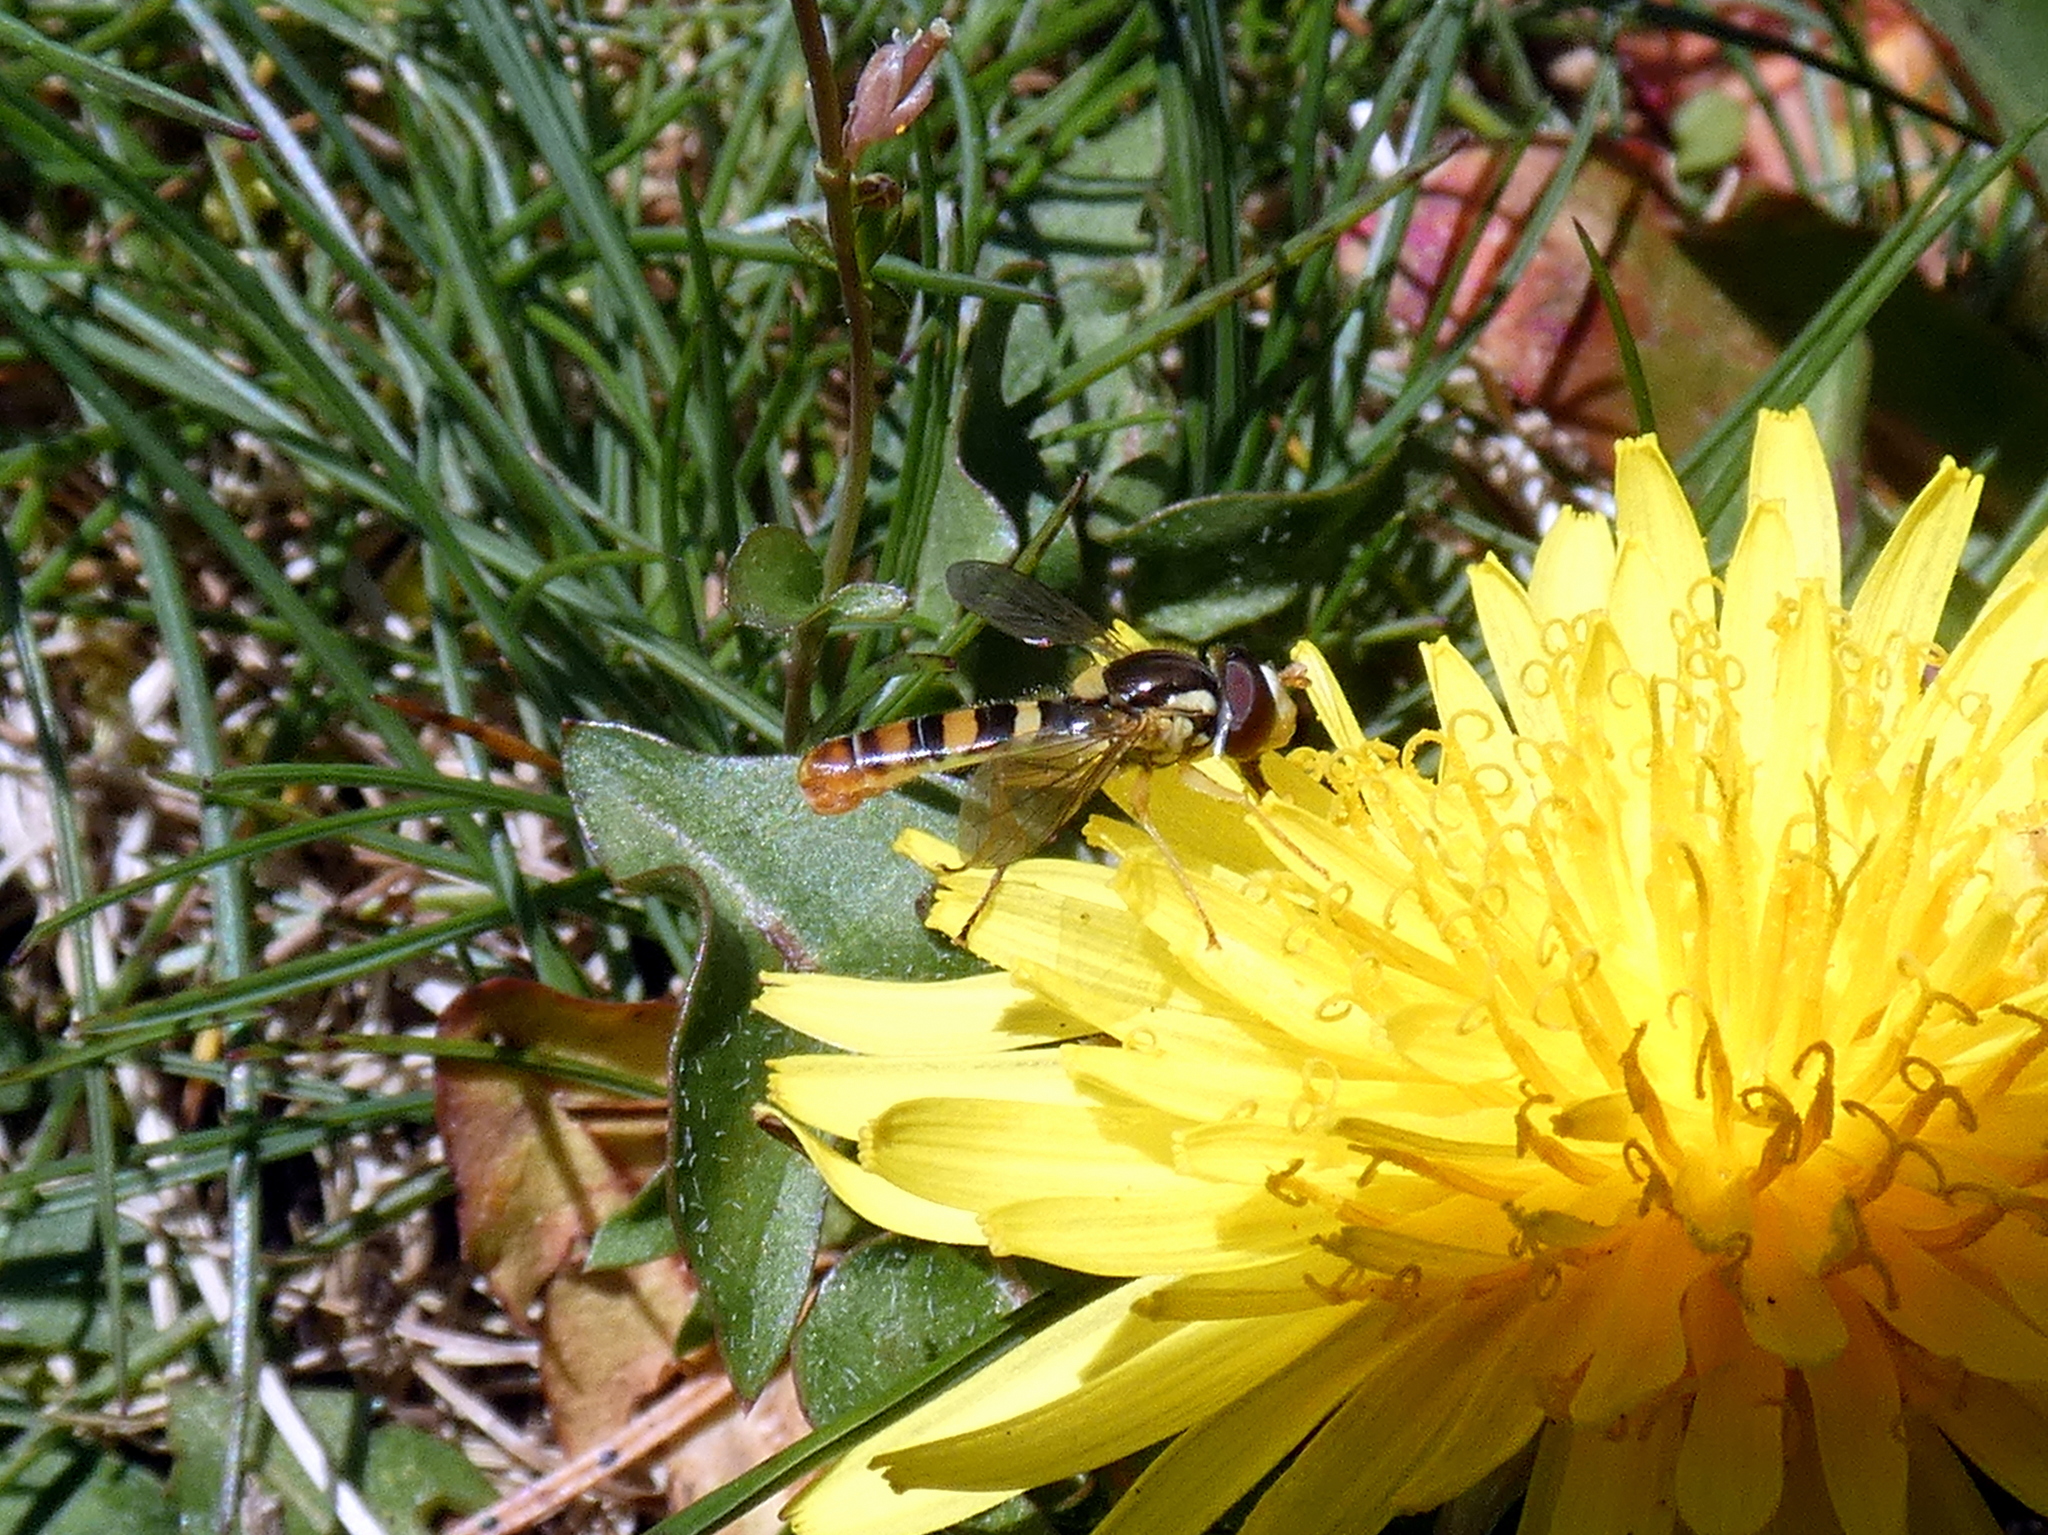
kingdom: Animalia
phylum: Arthropoda
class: Insecta
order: Diptera
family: Syrphidae
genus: Sphaerophoria
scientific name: Sphaerophoria contigua
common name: Tufted globetail
